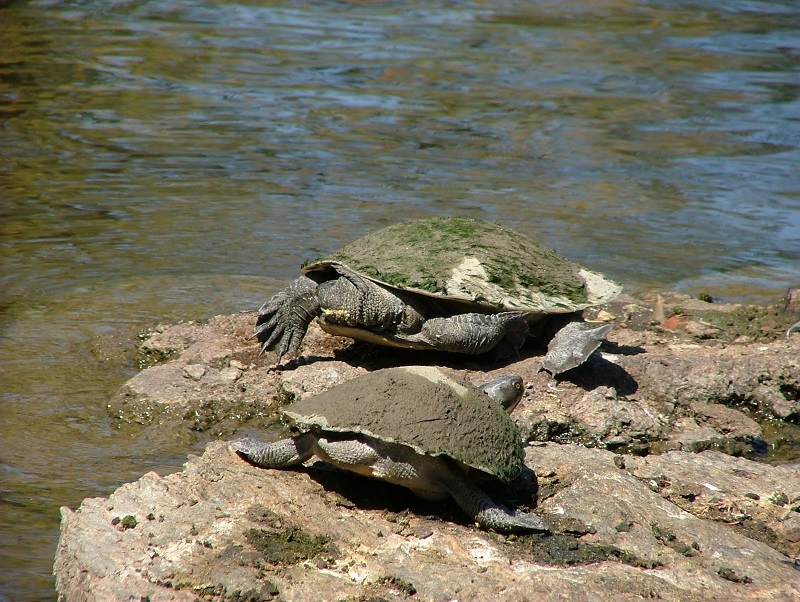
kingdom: Animalia
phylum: Chordata
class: Testudines
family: Chelidae
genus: Emydura
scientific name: Emydura macquarii
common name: Murray river turtle
